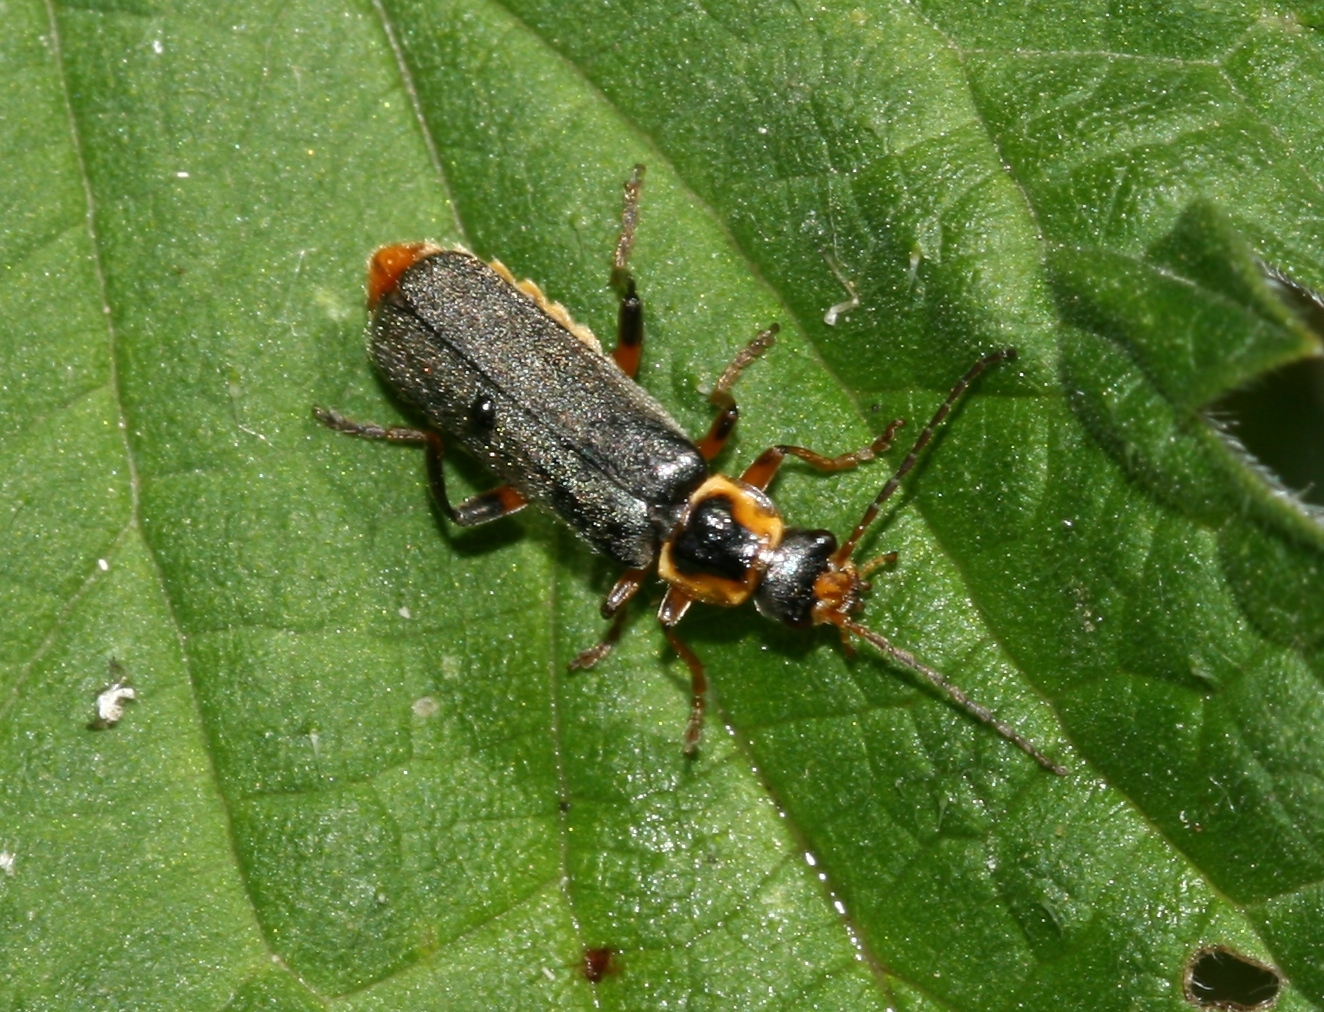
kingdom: Animalia
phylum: Arthropoda
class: Insecta
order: Coleoptera
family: Cantharidae
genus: Cantharis
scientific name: Cantharis nigricans
